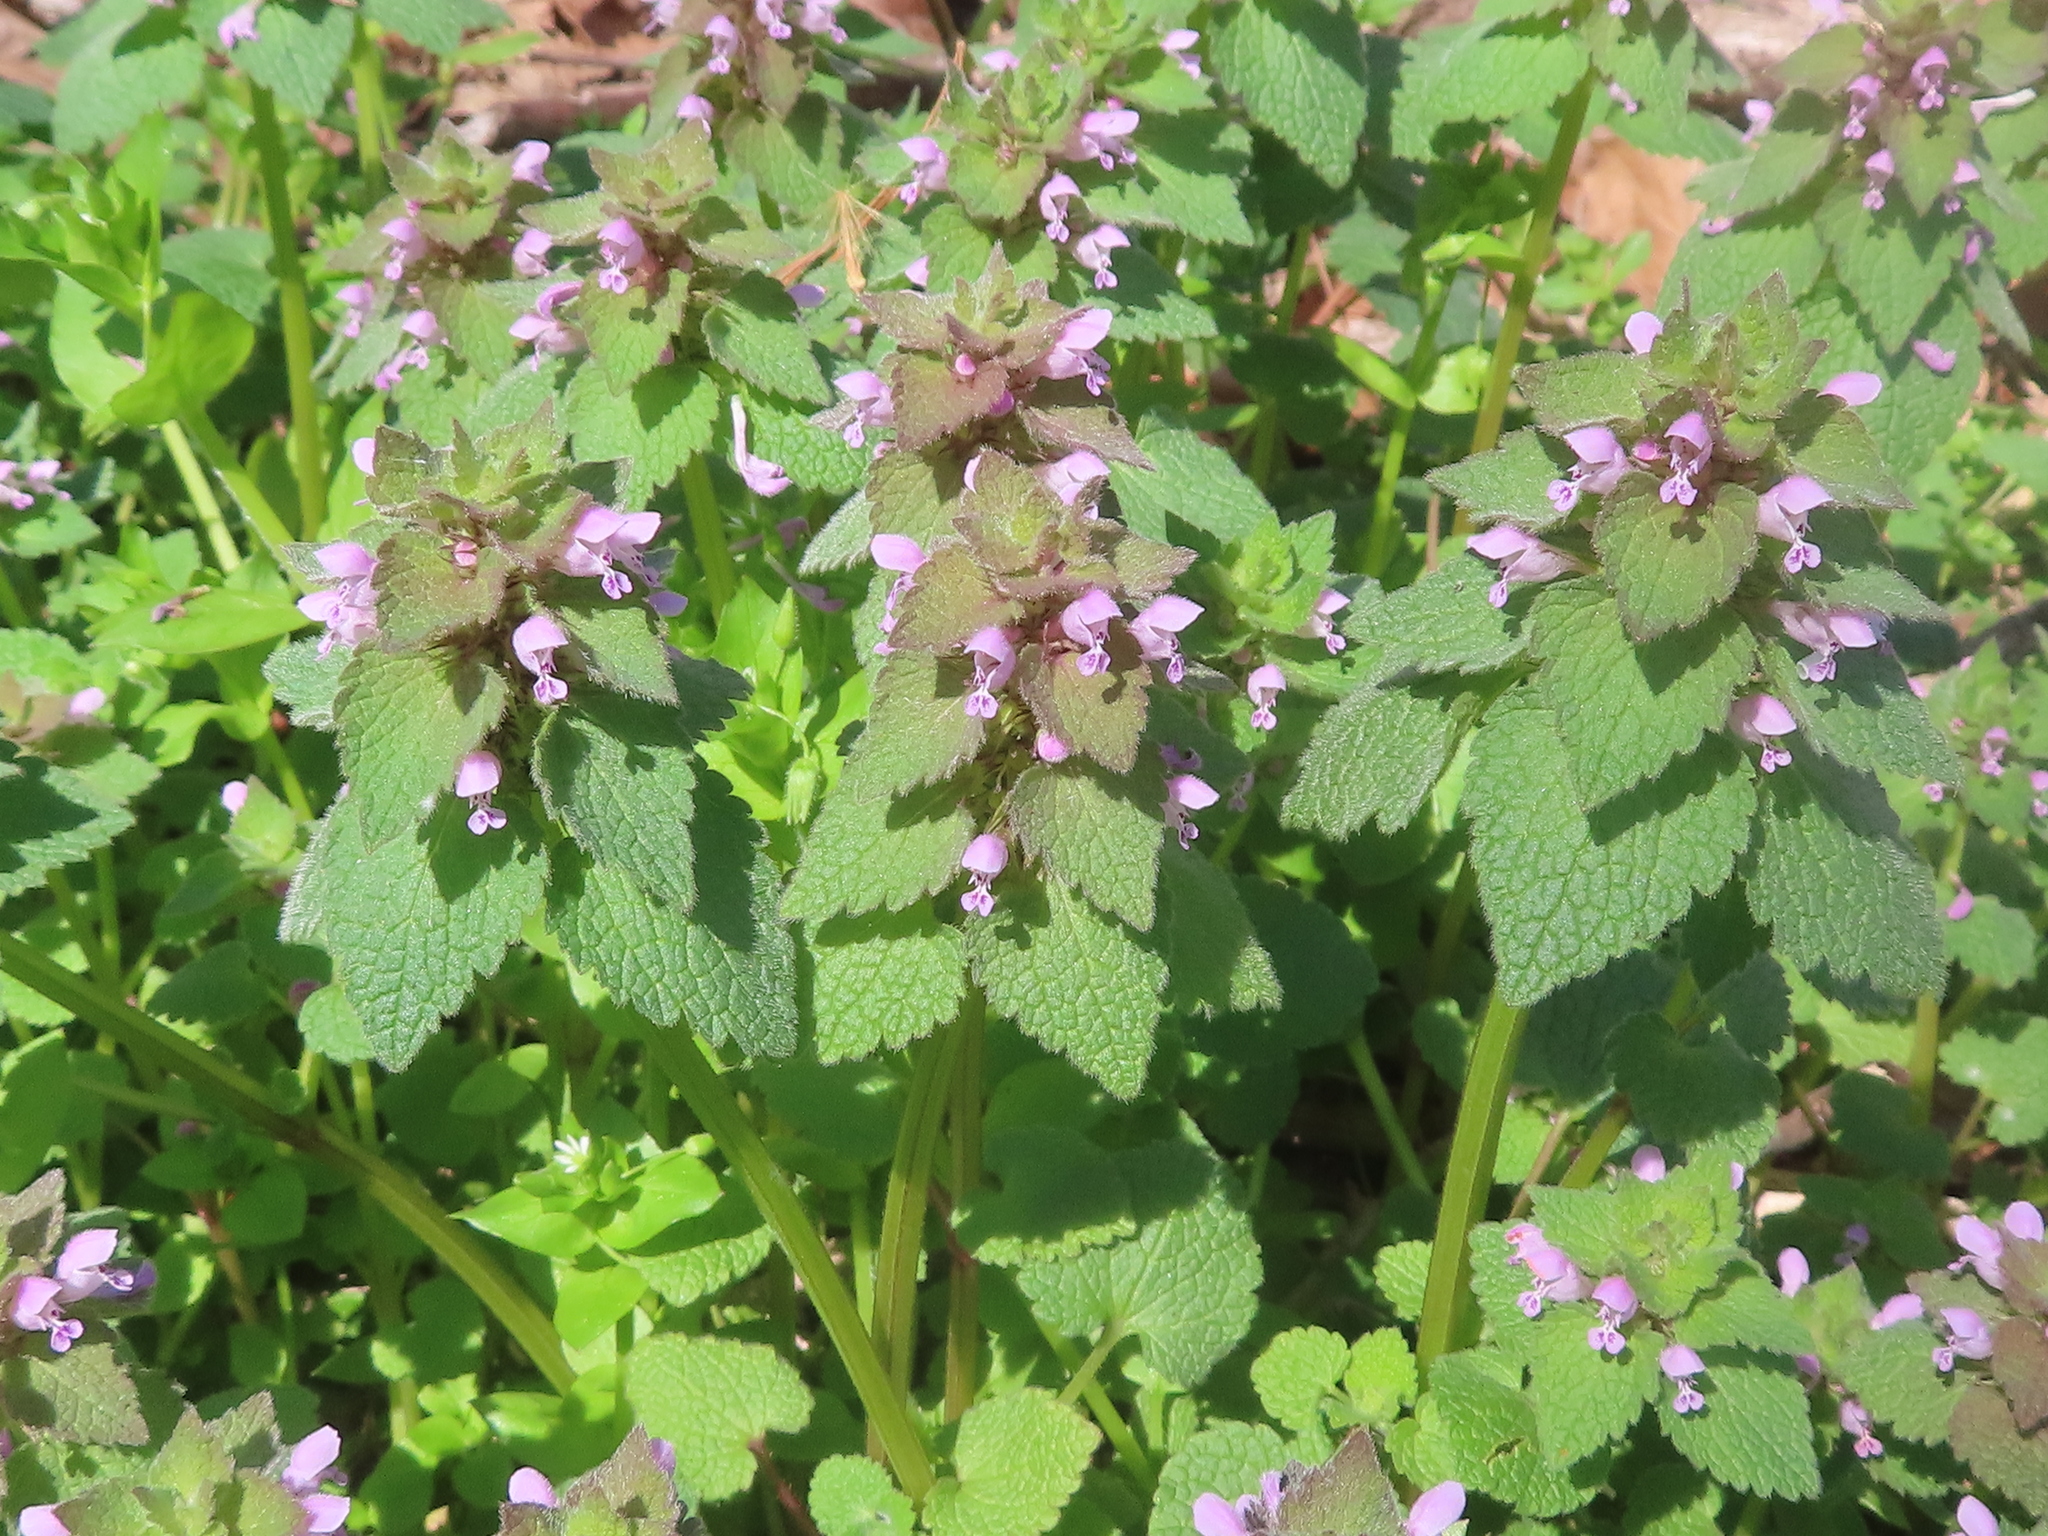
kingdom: Plantae
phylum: Tracheophyta
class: Magnoliopsida
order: Lamiales
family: Lamiaceae
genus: Lamium
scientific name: Lamium purpureum
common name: Red dead-nettle
